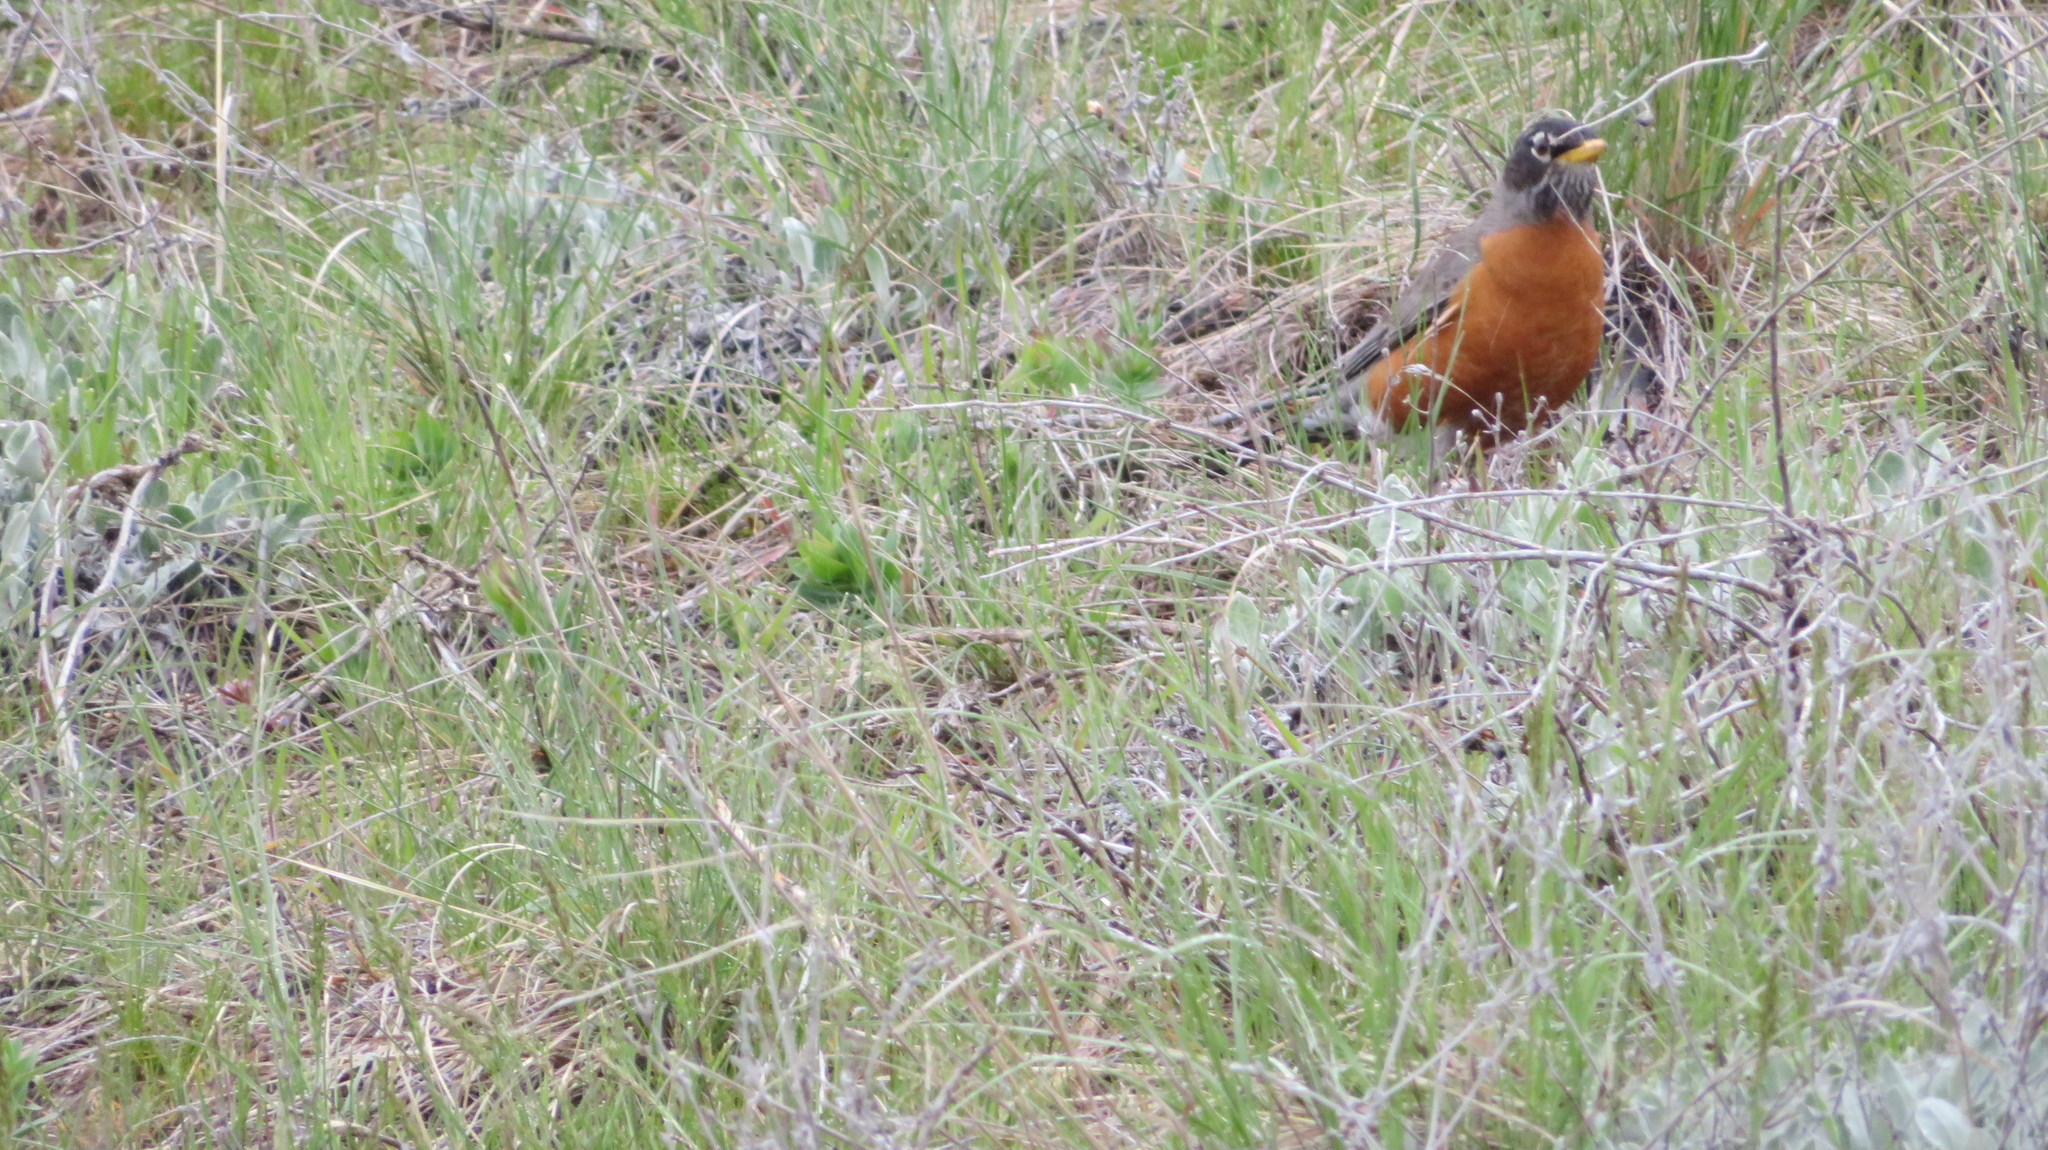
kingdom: Animalia
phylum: Chordata
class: Aves
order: Passeriformes
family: Turdidae
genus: Turdus
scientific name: Turdus migratorius
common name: American robin
